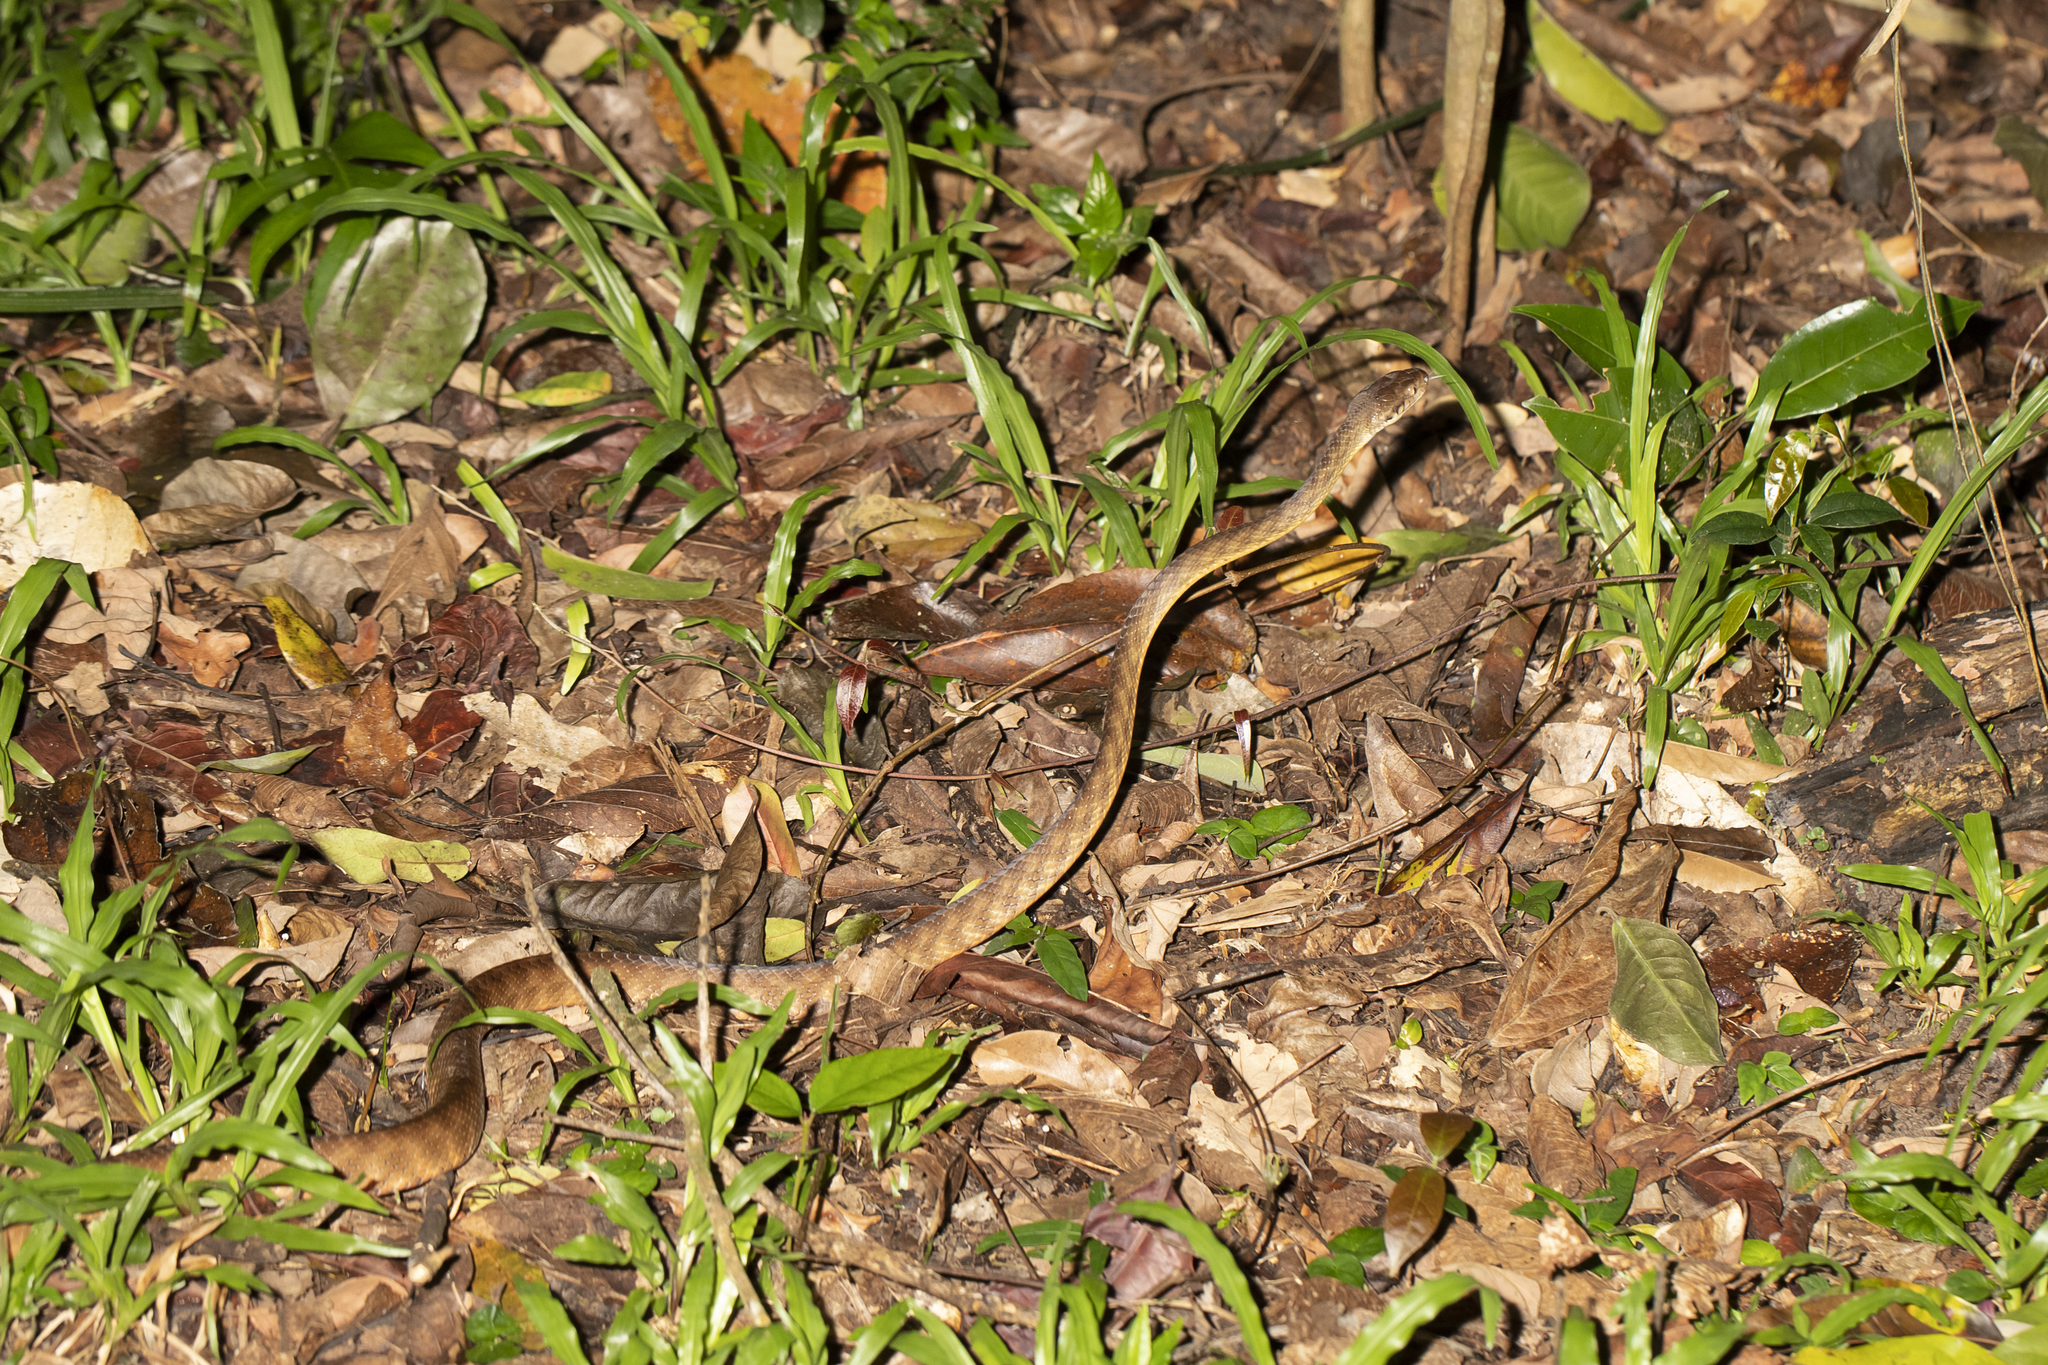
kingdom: Animalia
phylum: Chordata
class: Squamata
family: Colubridae
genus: Boiga
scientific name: Boiga irregularis
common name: Brown tree snake
